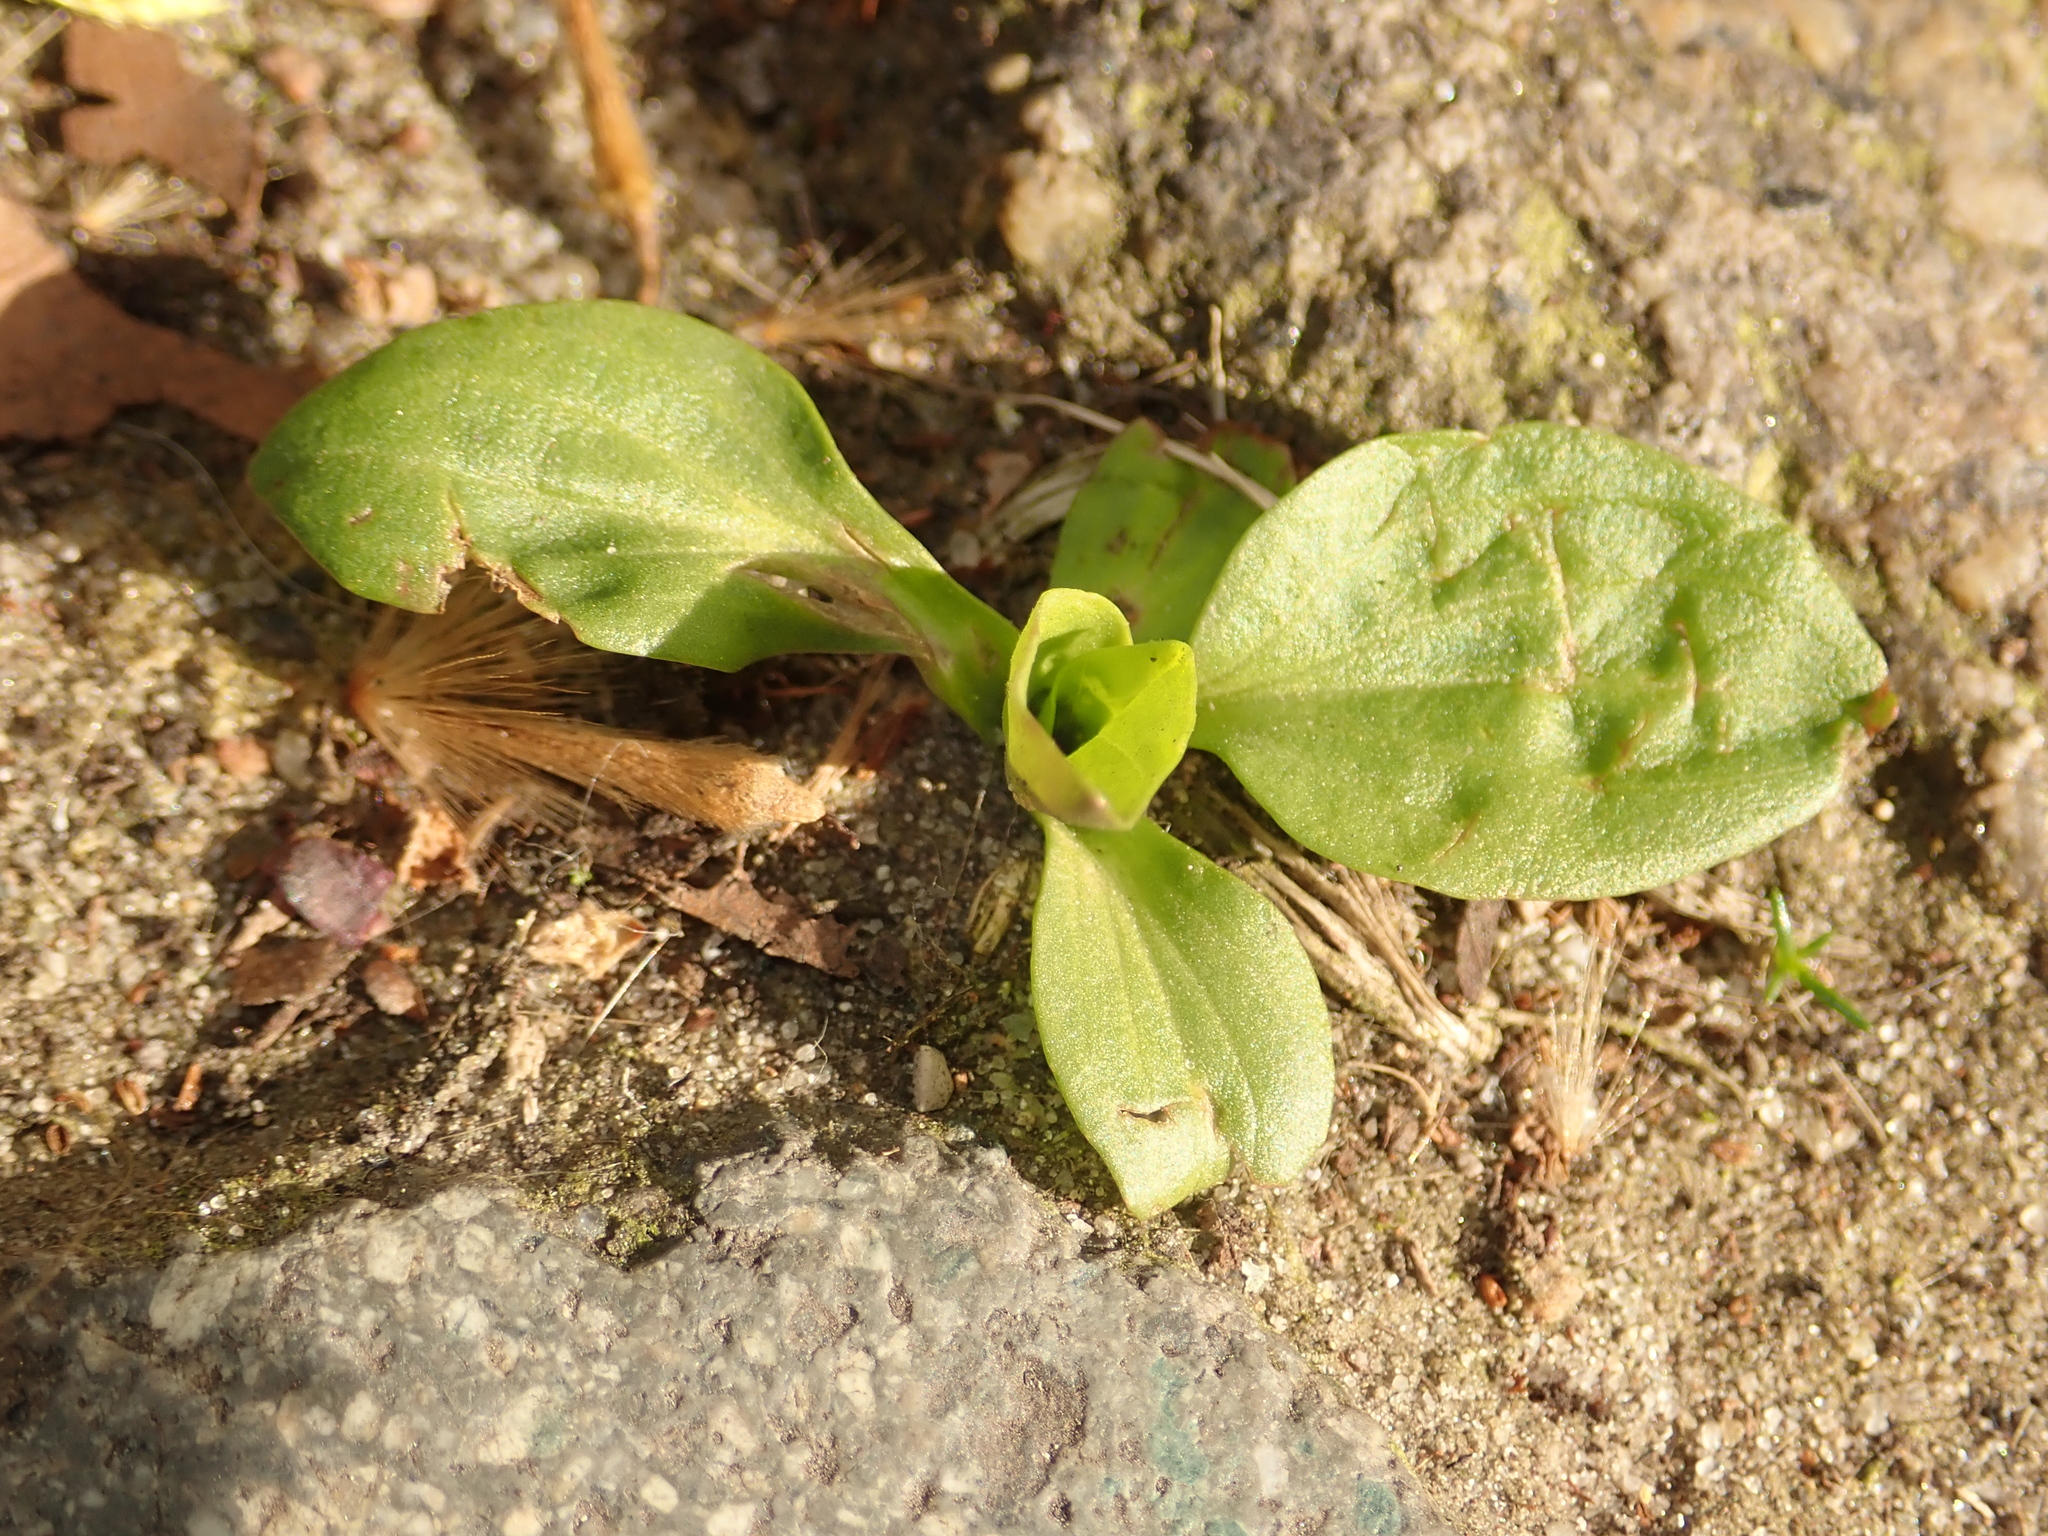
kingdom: Plantae
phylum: Tracheophyta
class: Magnoliopsida
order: Lamiales
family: Plantaginaceae
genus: Plantago
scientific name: Plantago major
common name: Common plantain
